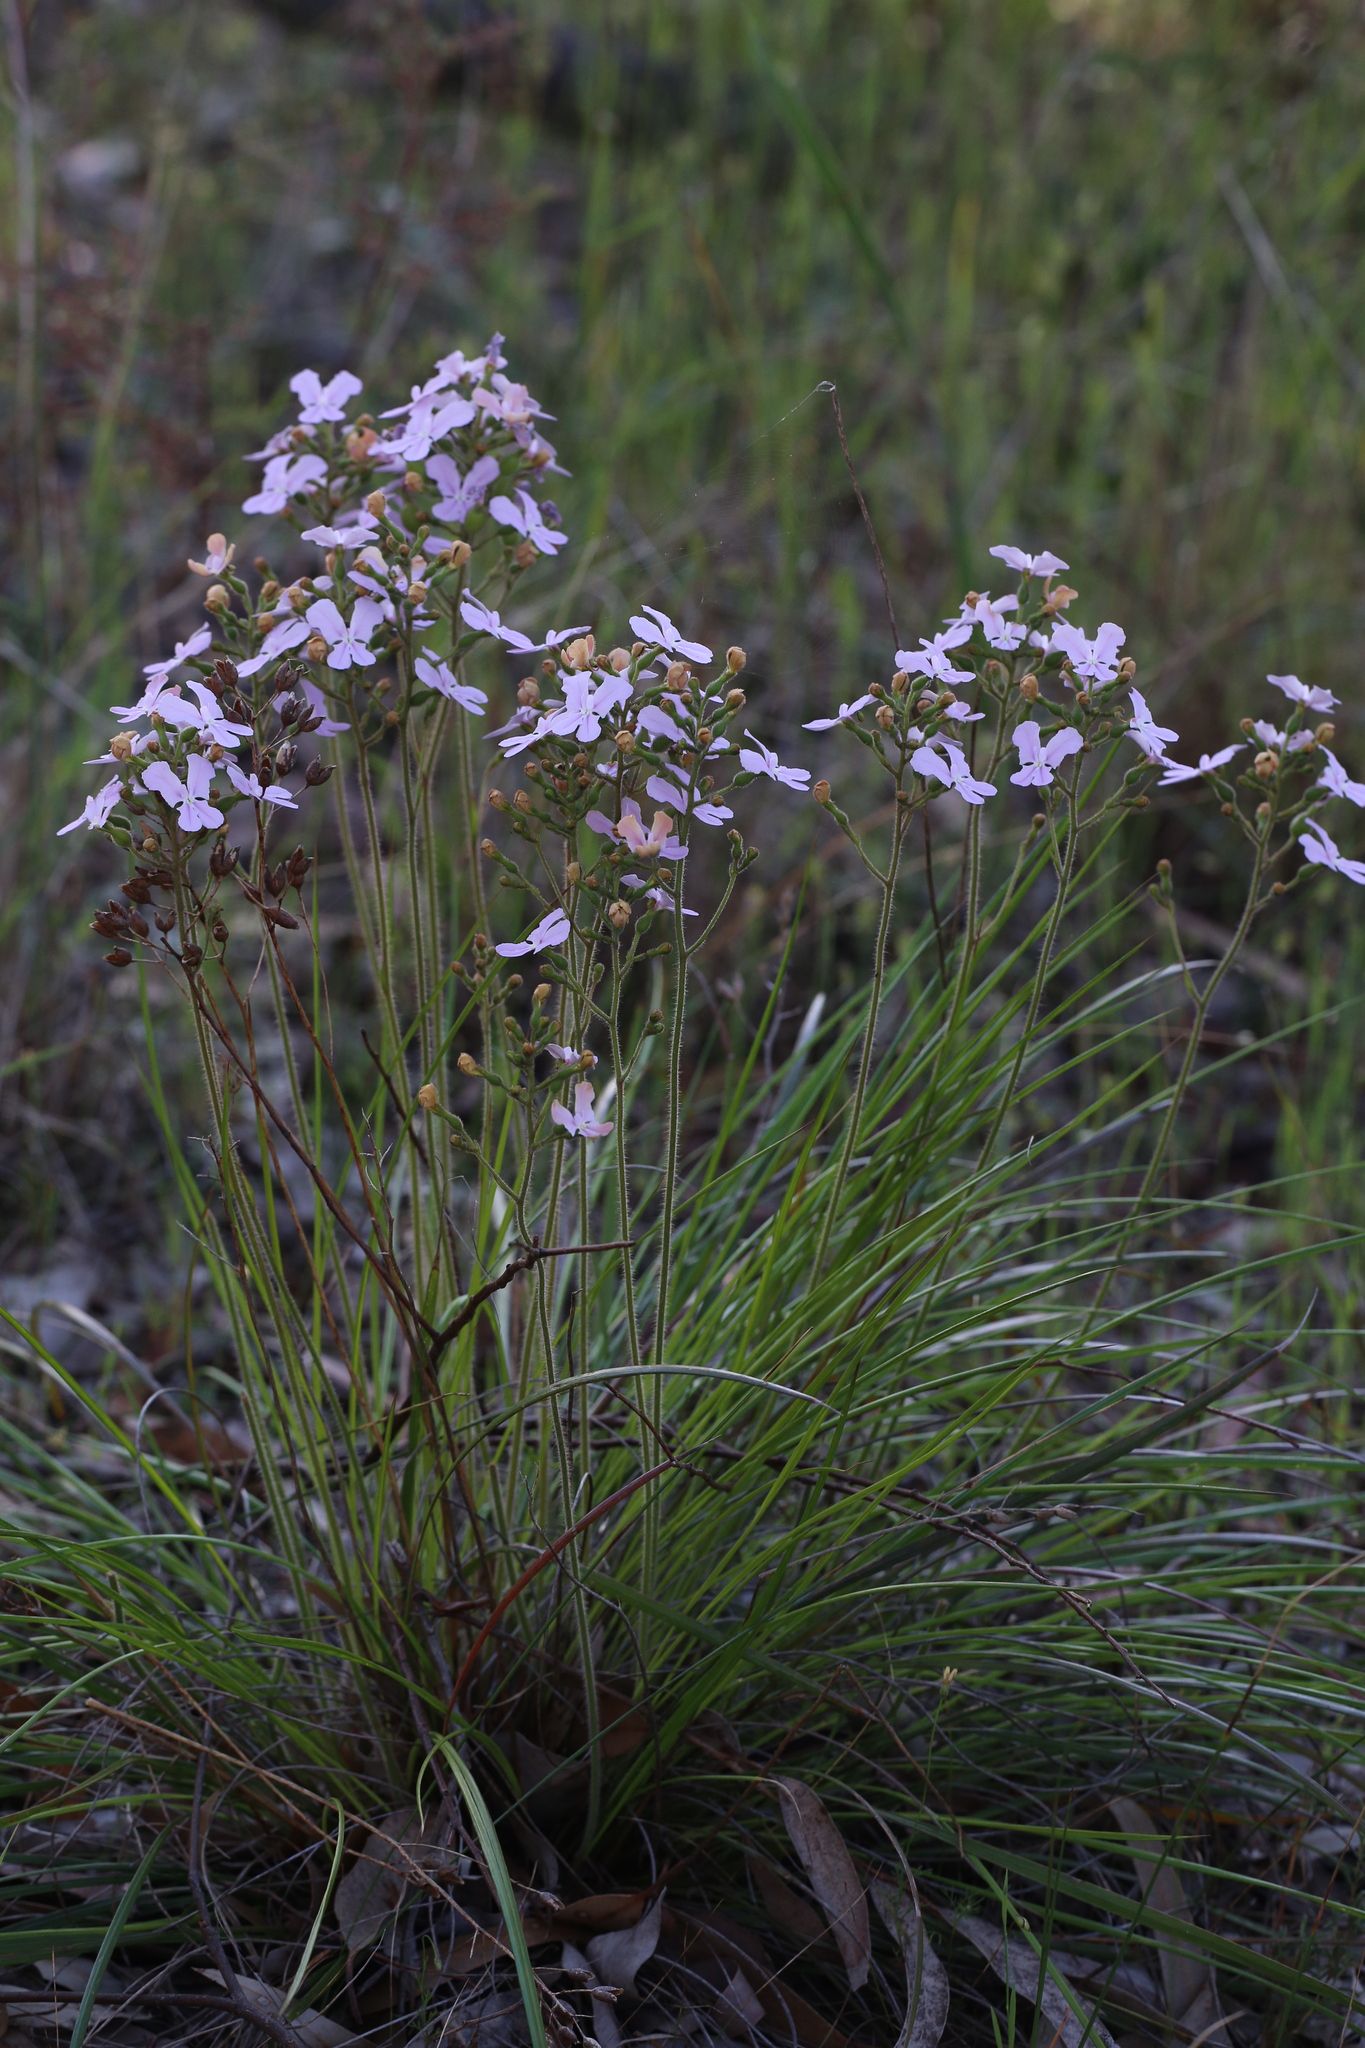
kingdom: Plantae
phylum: Tracheophyta
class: Magnoliopsida
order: Asterales
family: Stylidiaceae
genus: Stylidium
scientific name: Stylidium affine
